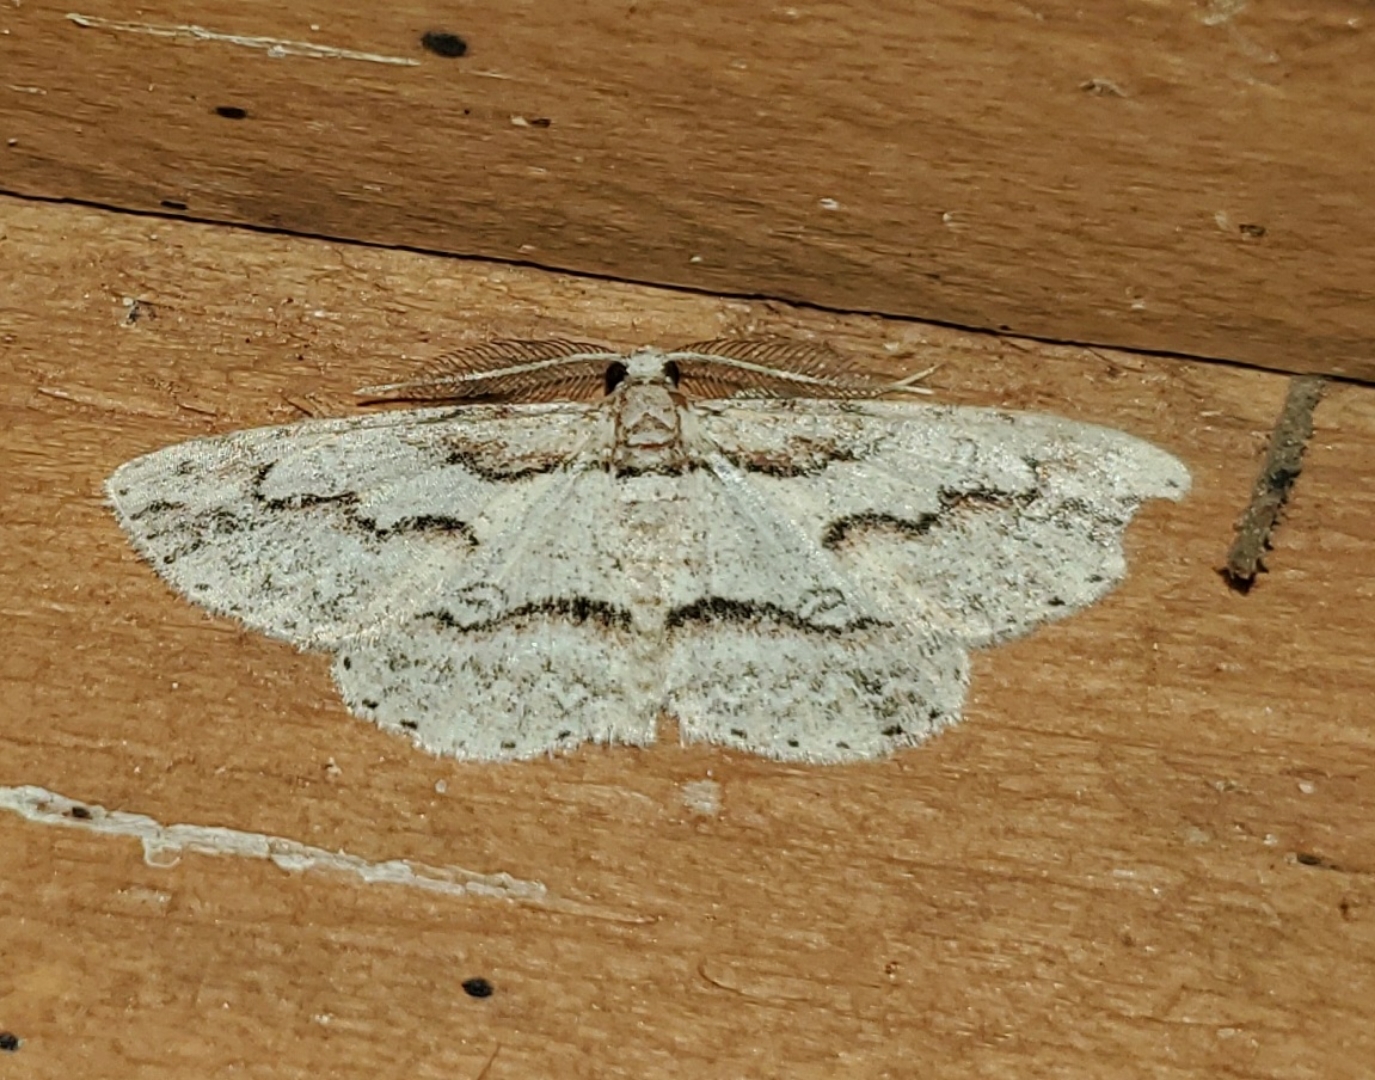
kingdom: Animalia
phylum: Arthropoda
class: Insecta
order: Lepidoptera
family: Geometridae
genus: Iridopsis
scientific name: Iridopsis pergracilis
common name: Cypress looper
